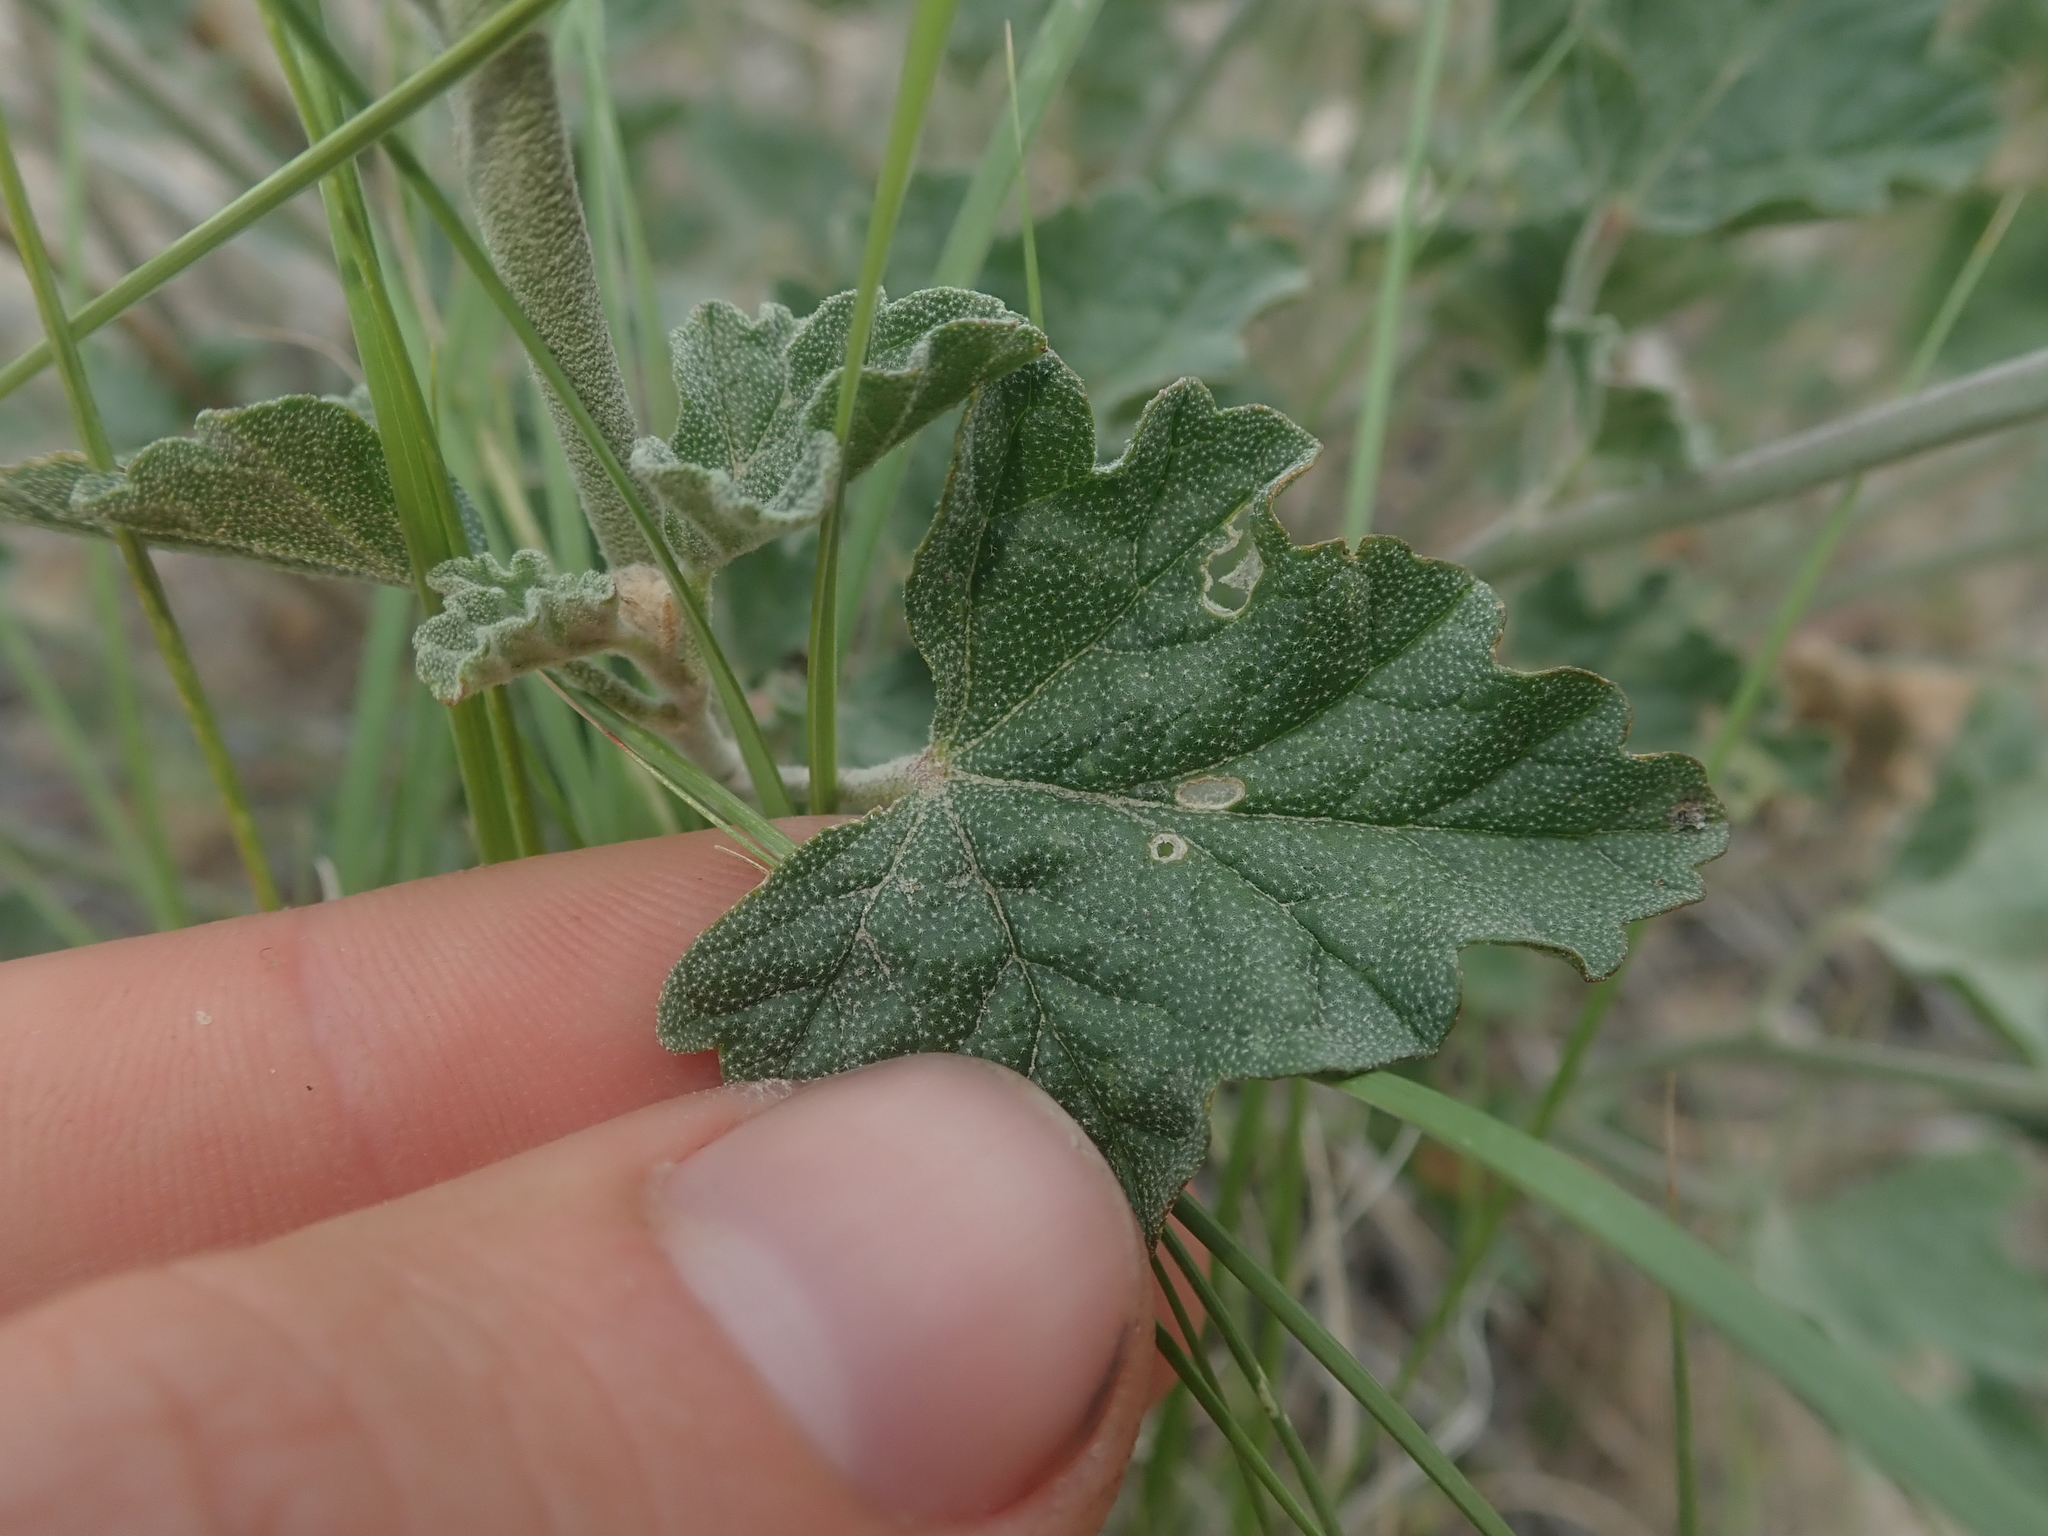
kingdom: Plantae
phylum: Tracheophyta
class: Magnoliopsida
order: Malvales
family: Malvaceae
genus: Sphaeralcea
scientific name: Sphaeralcea munroana
